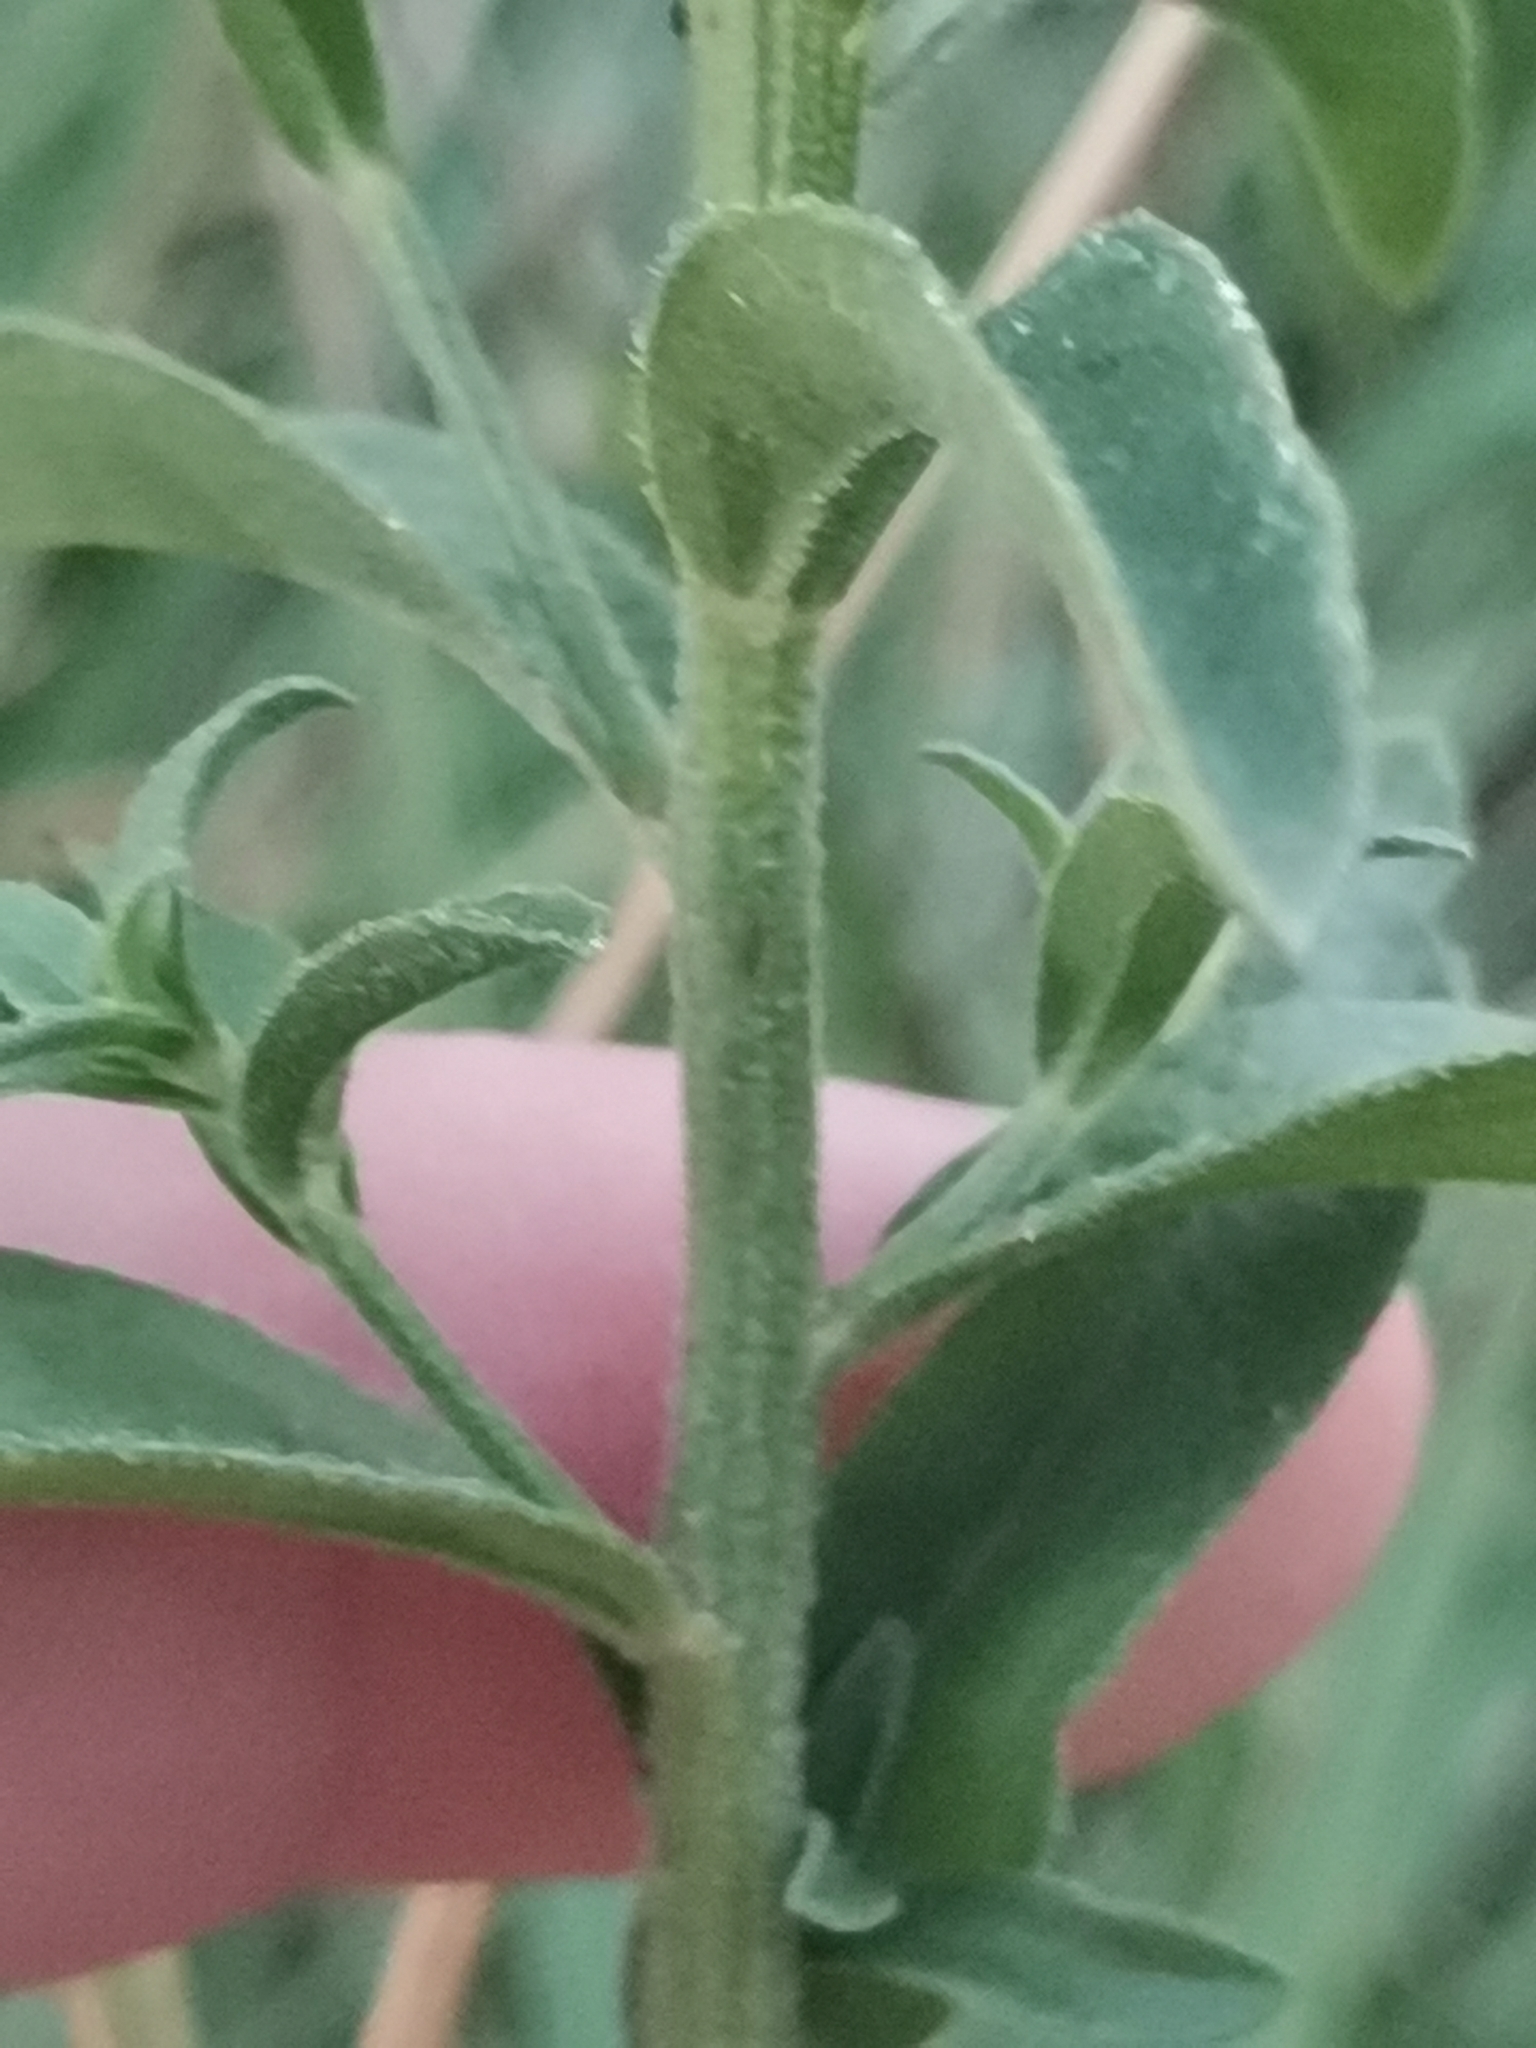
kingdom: Plantae
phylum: Tracheophyta
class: Magnoliopsida
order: Asterales
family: Asteraceae
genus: Aster
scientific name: Aster amellus
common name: European michaelmas daisy
